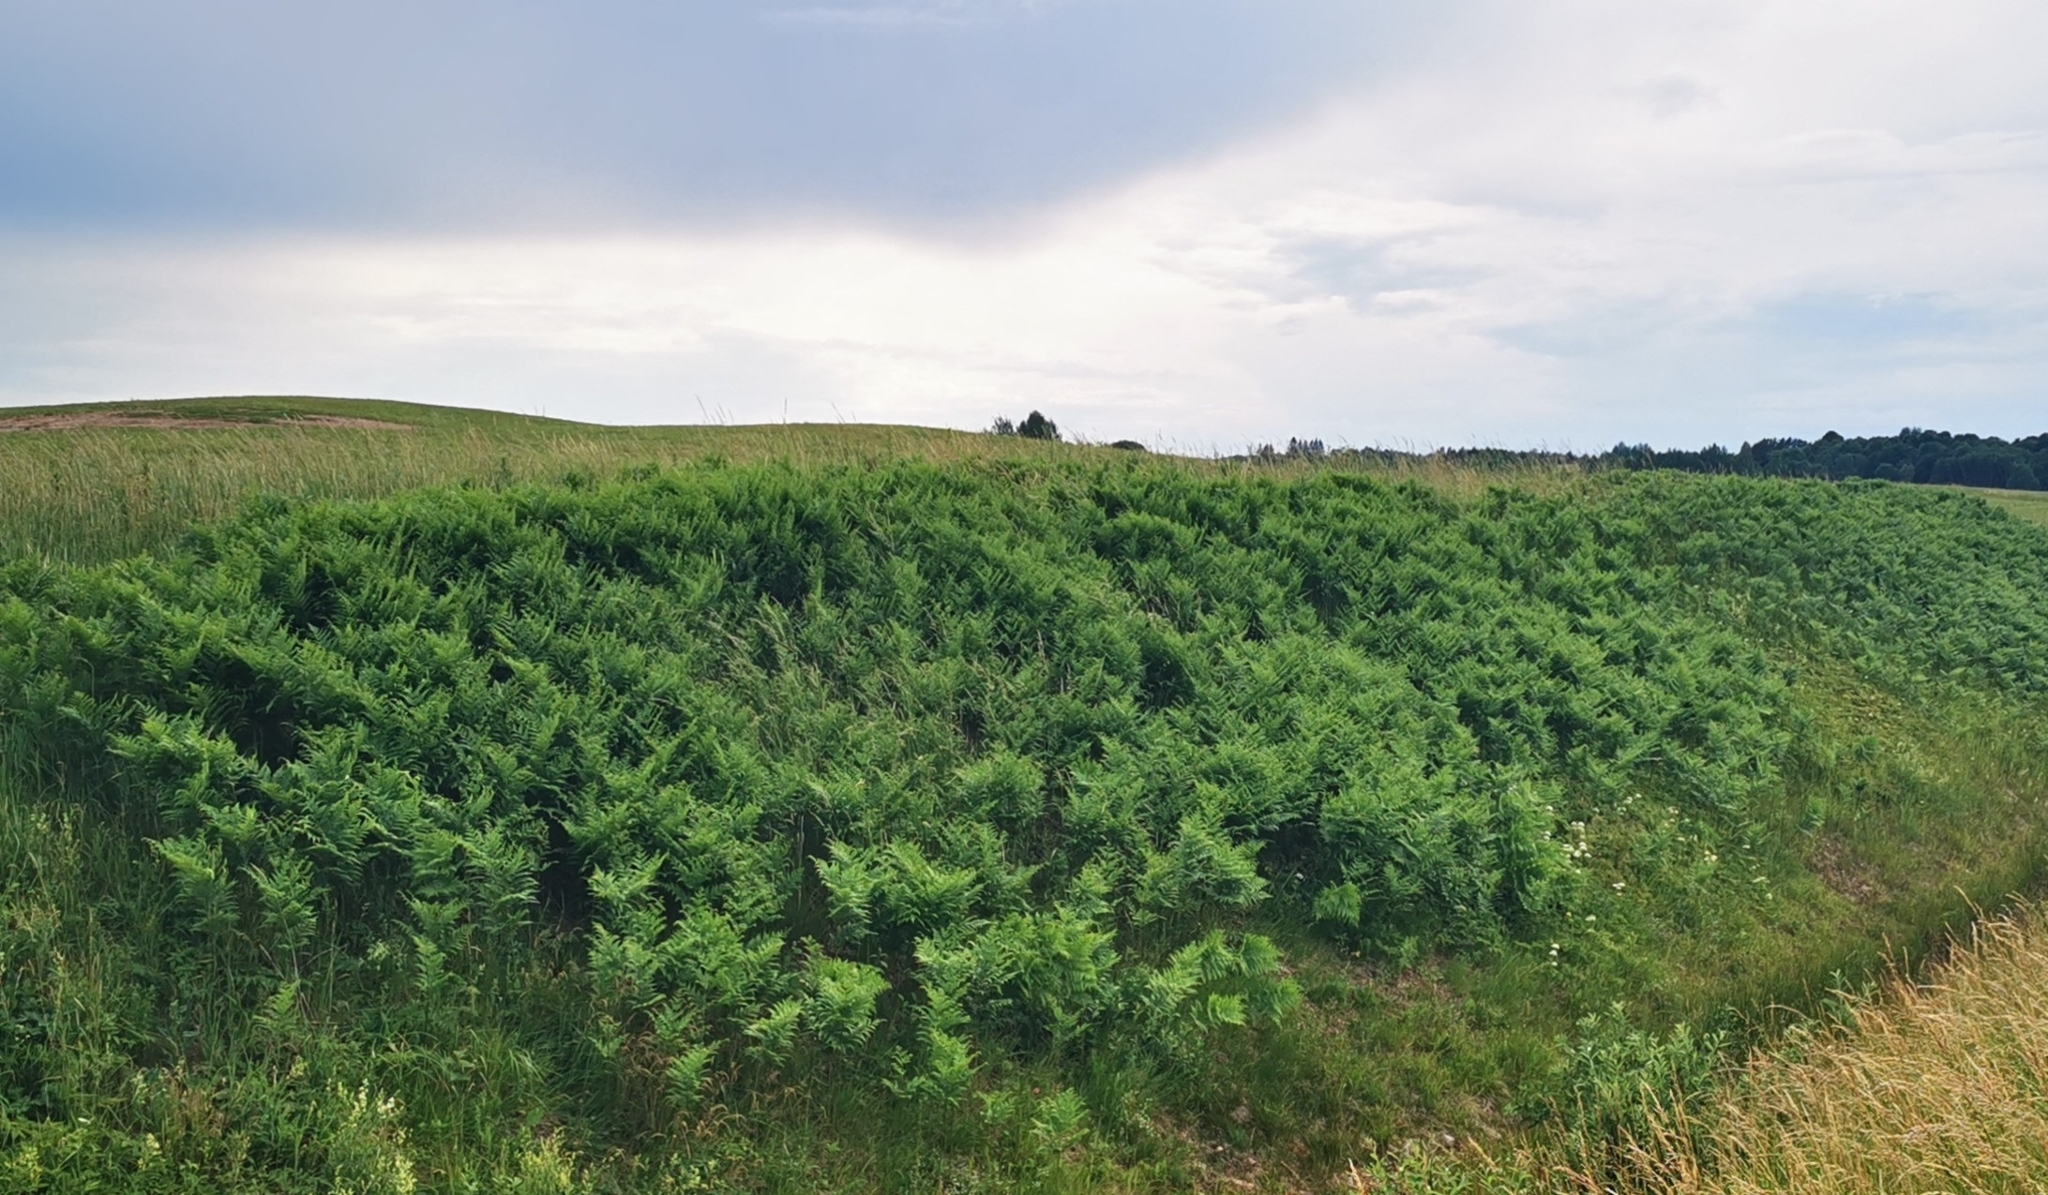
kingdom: Plantae
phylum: Tracheophyta
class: Polypodiopsida
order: Polypodiales
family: Dennstaedtiaceae
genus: Pteridium
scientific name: Pteridium aquilinum
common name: Bracken
